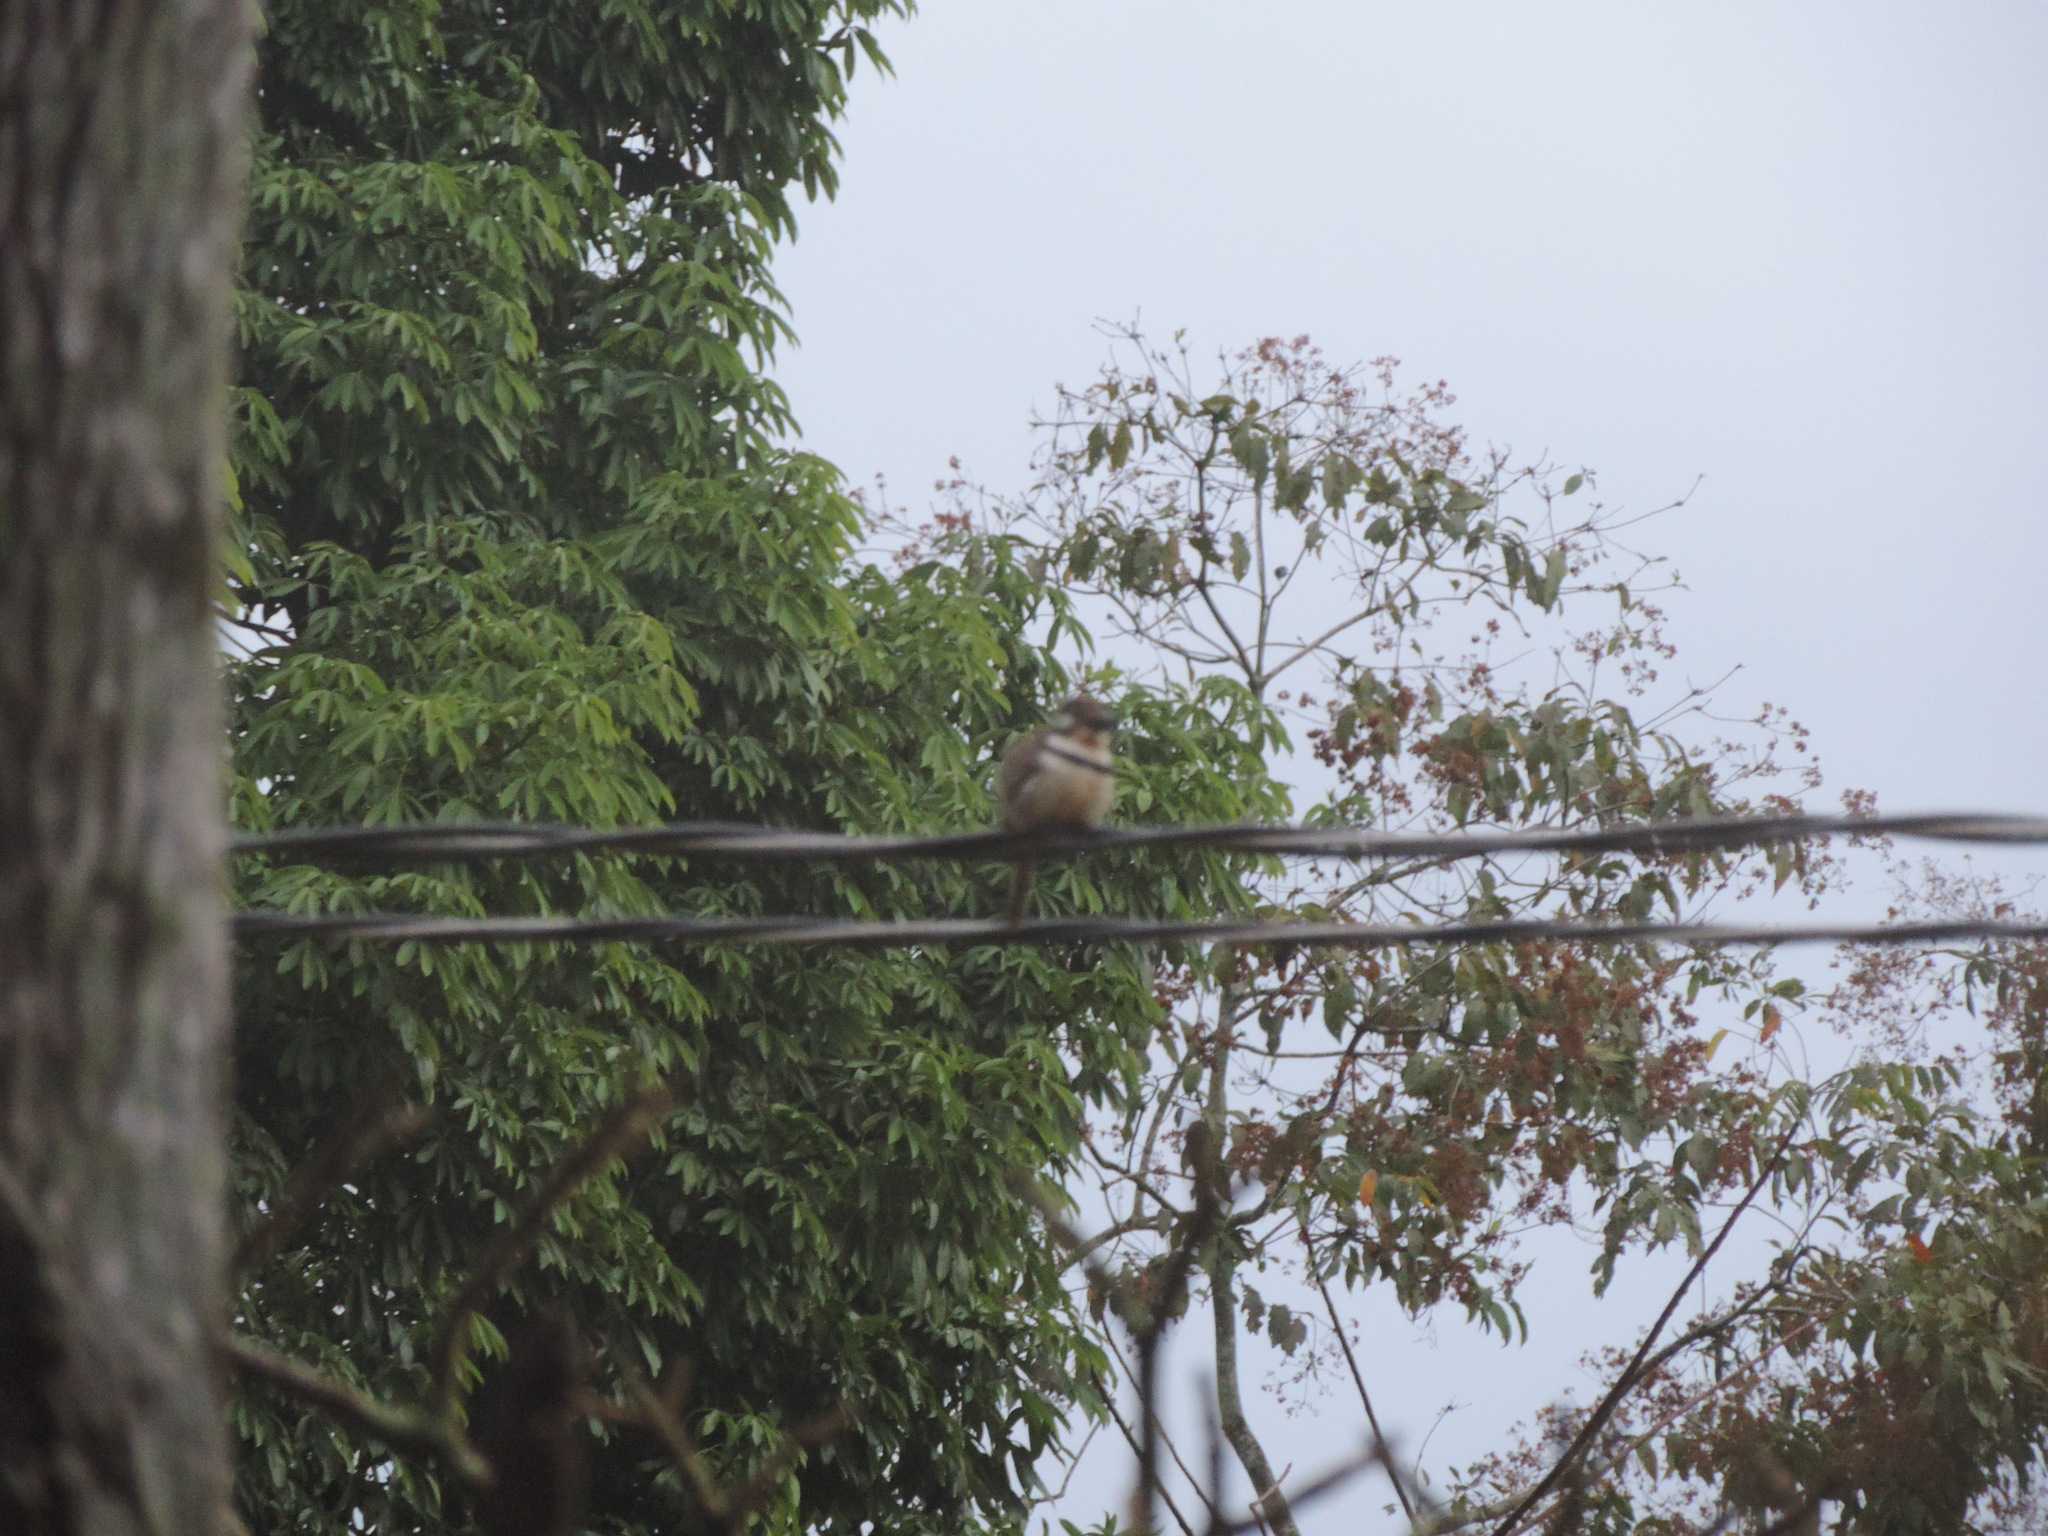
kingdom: Animalia
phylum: Chordata
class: Aves
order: Piciformes
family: Bucconidae
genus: Hypnelus
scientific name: Hypnelus ruficollis
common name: Russet-throated puffbird
